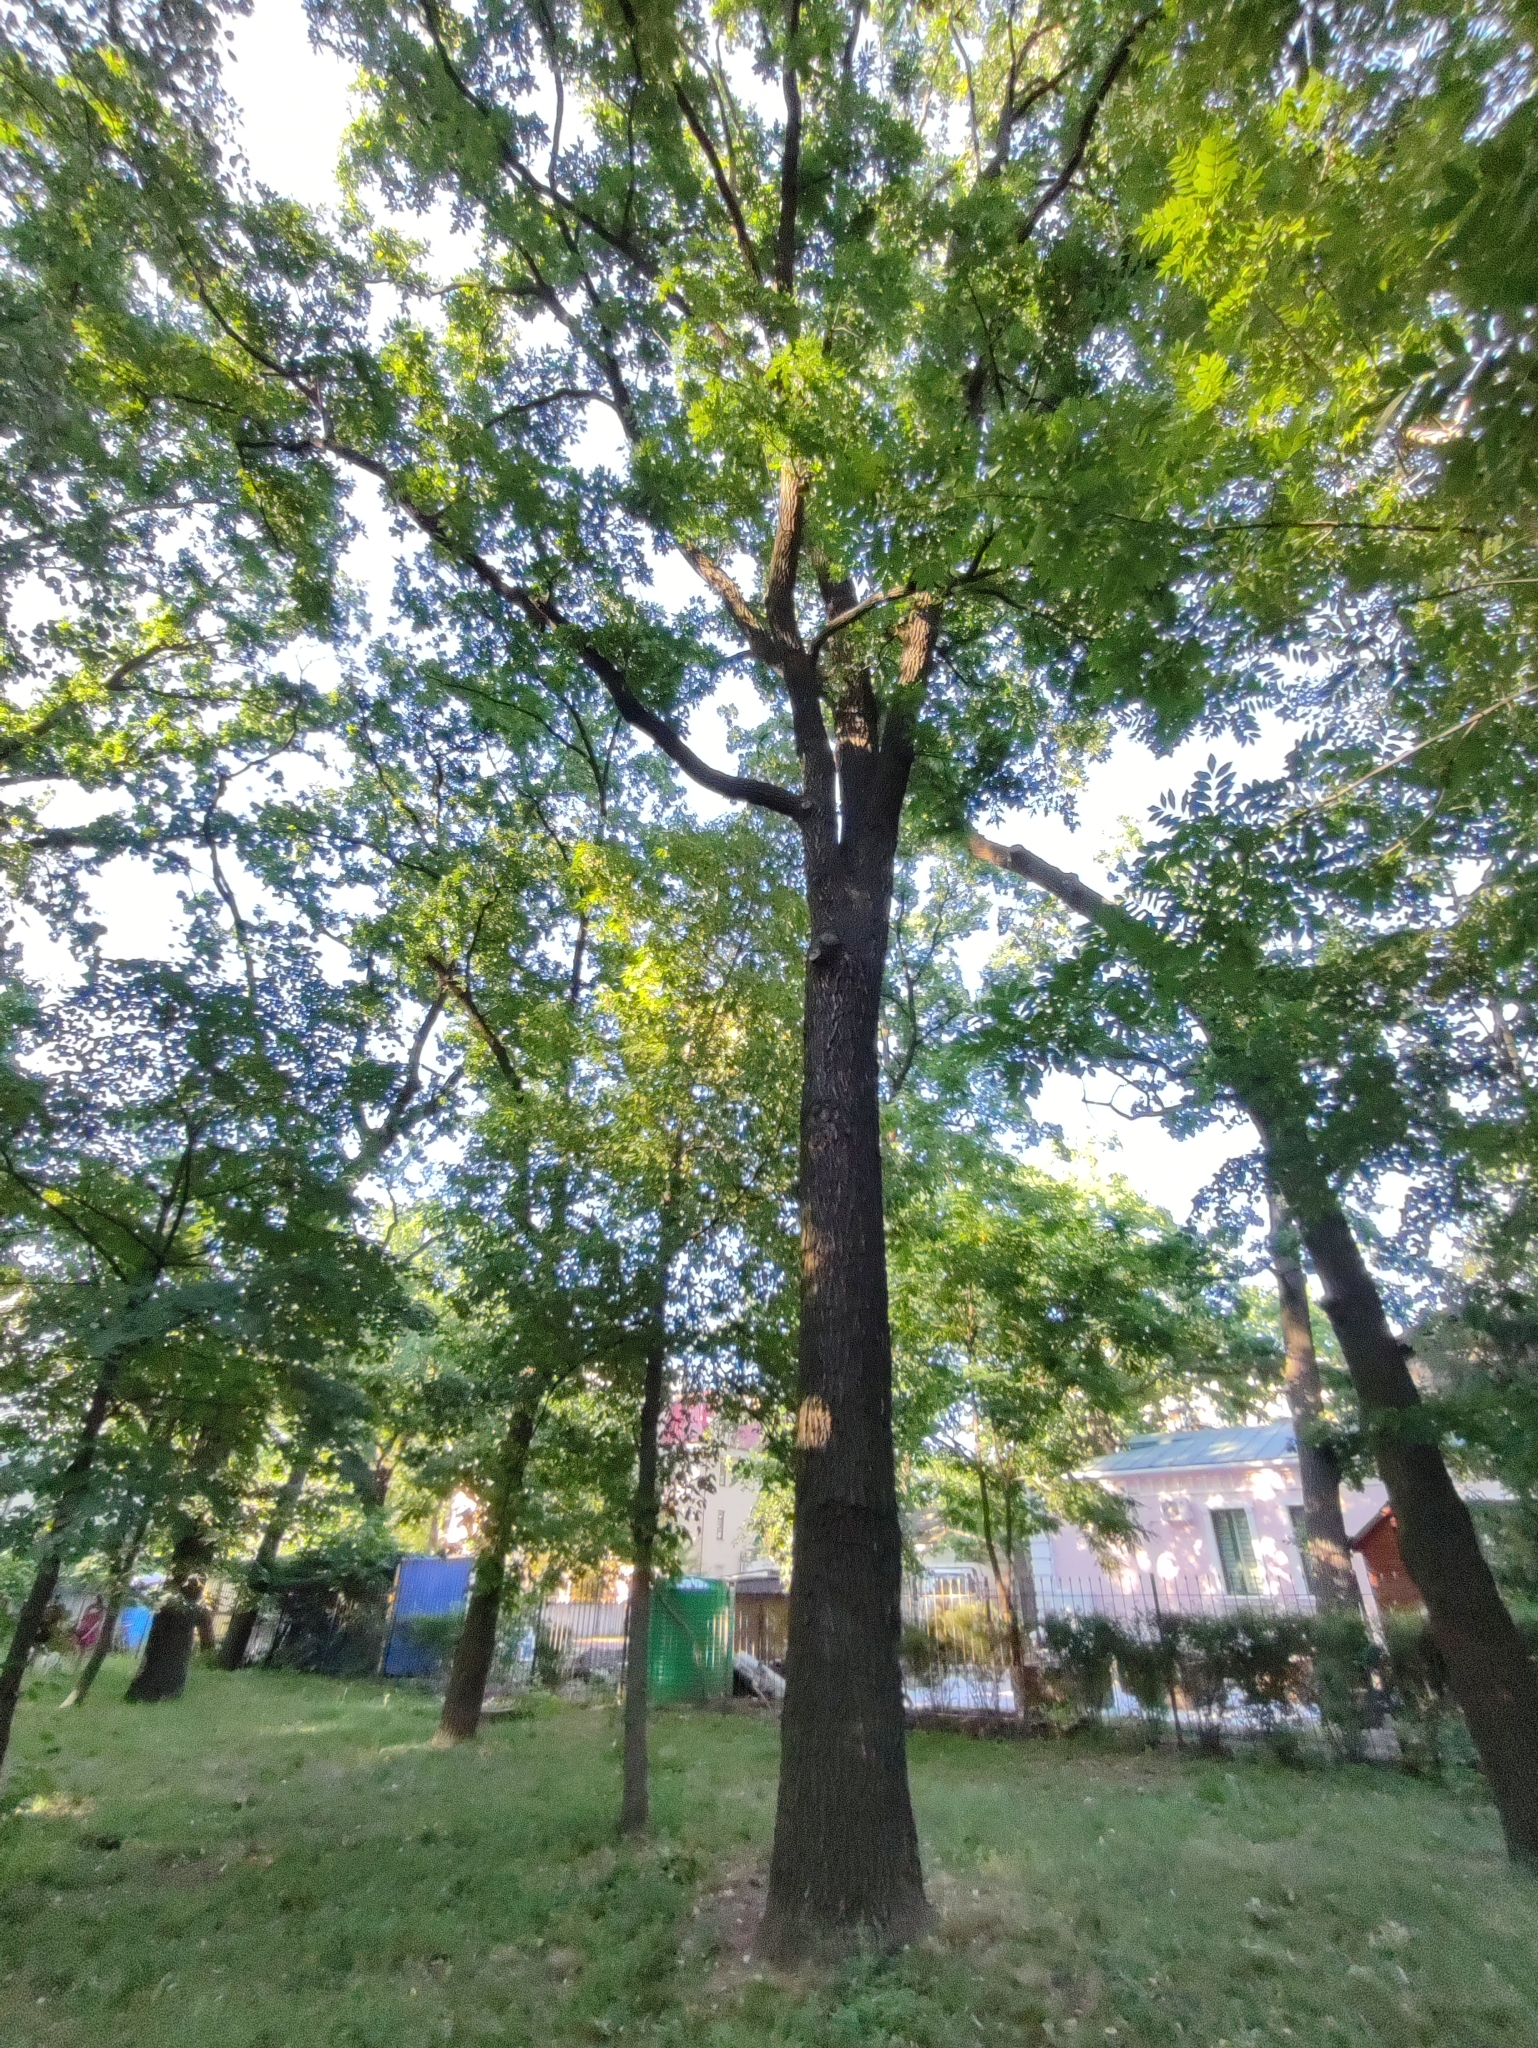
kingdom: Plantae
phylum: Tracheophyta
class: Magnoliopsida
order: Fagales
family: Fagaceae
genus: Quercus
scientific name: Quercus robur
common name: Pedunculate oak
